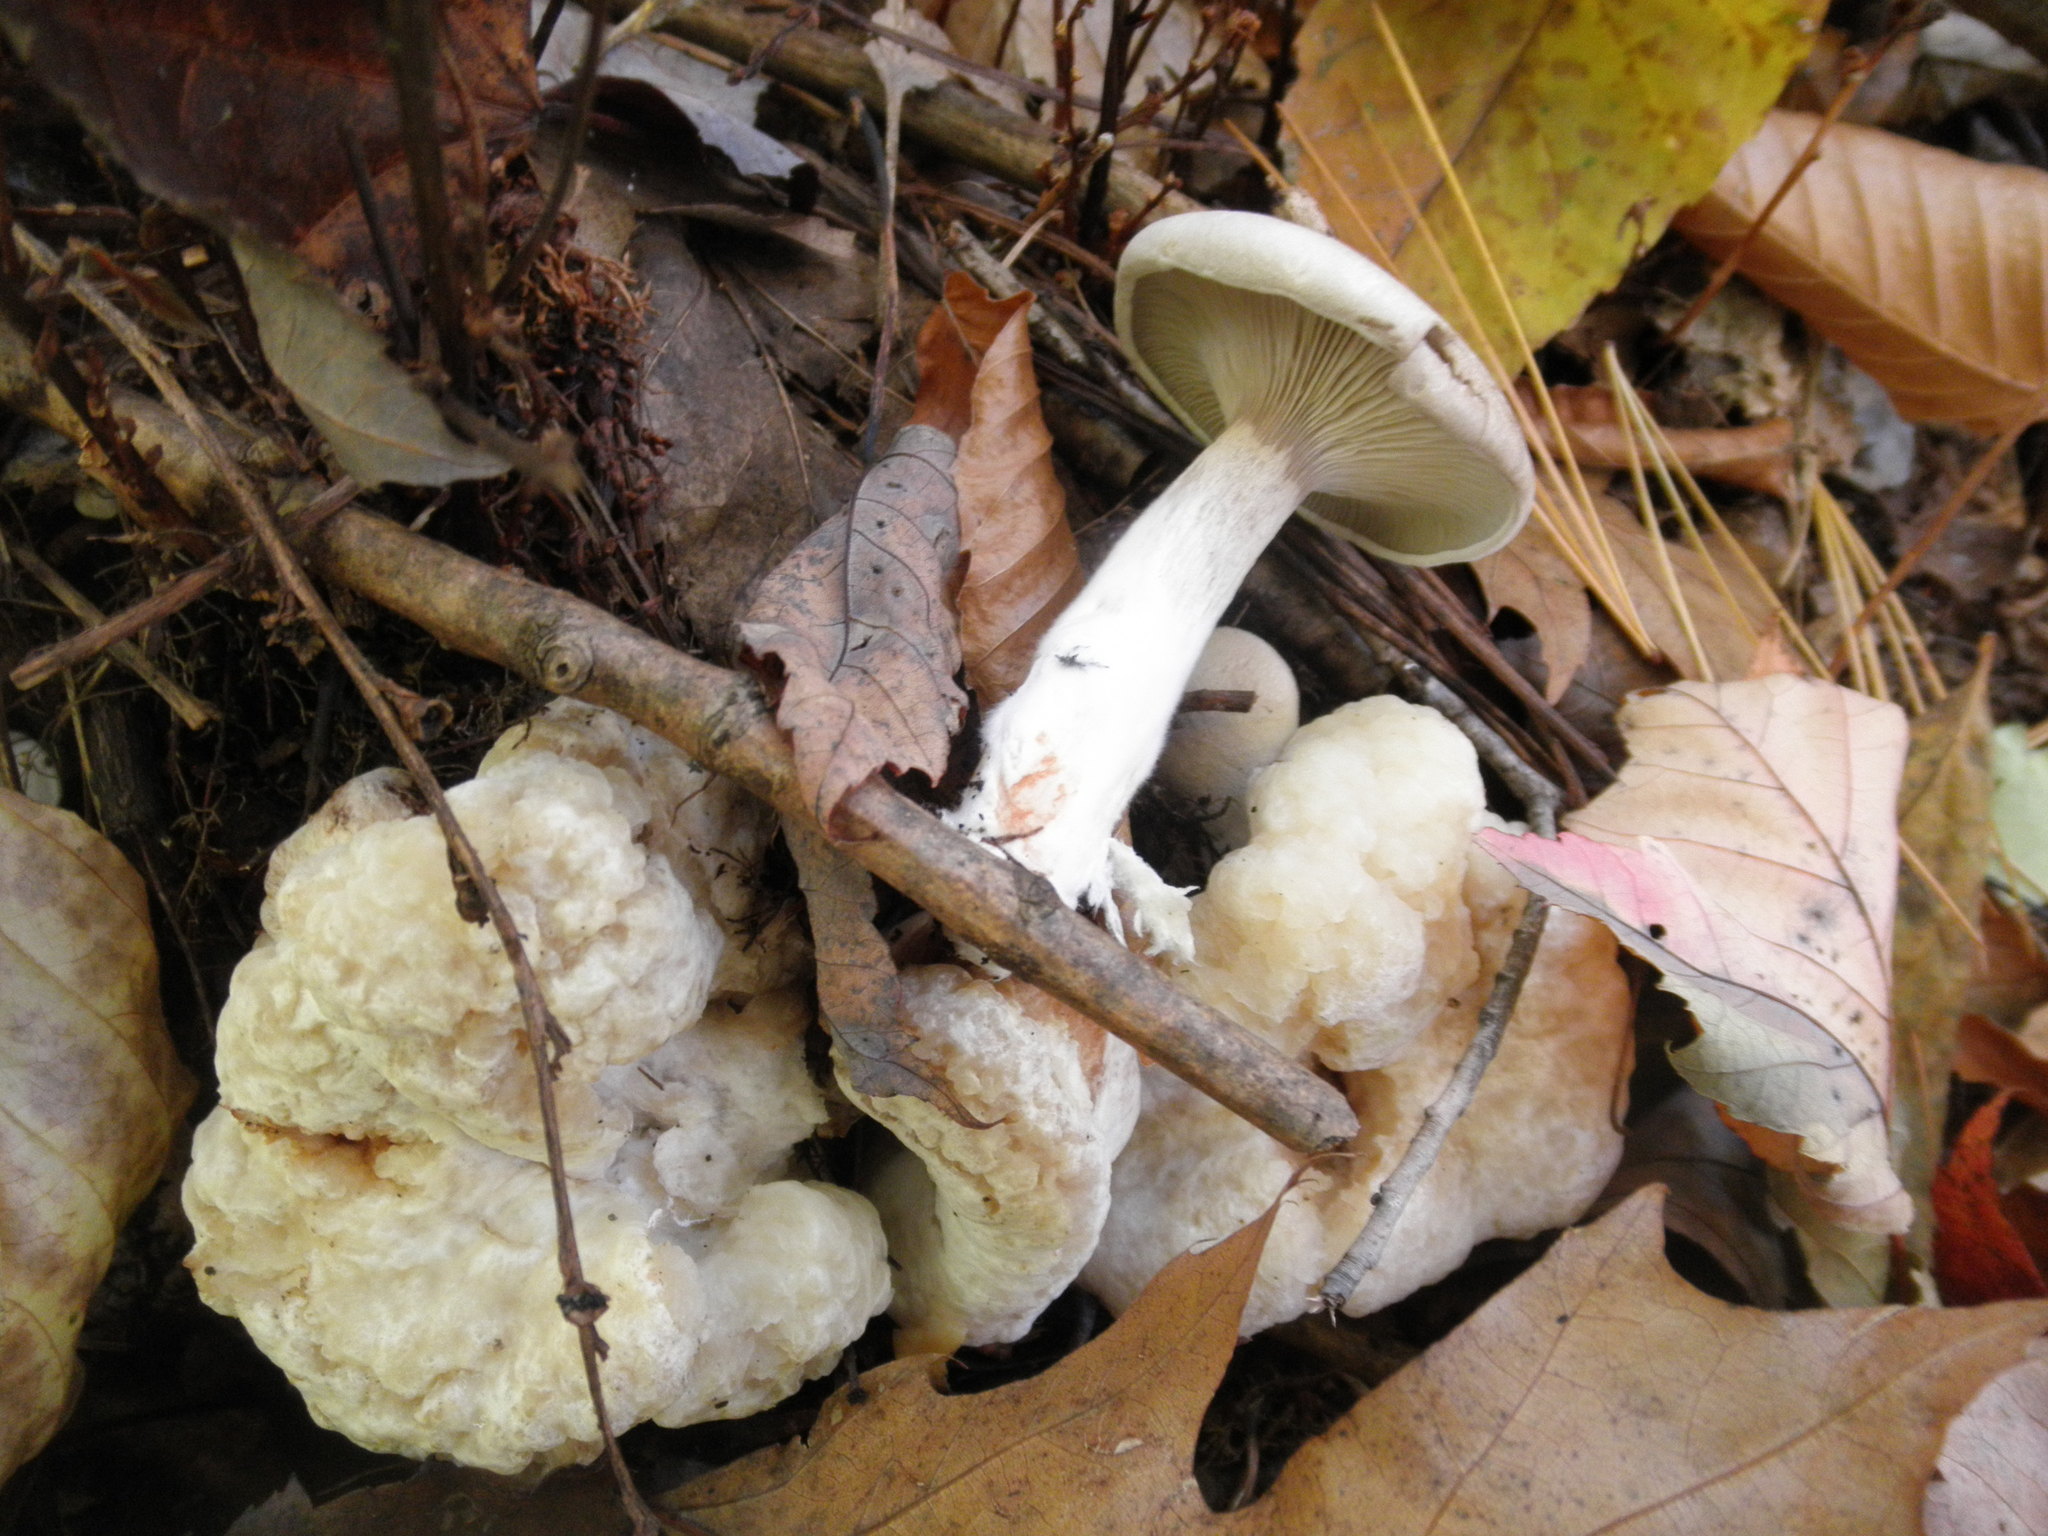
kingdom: Fungi
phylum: Basidiomycota
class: Agaricomycetes
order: Agaricales
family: Entolomataceae
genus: Entoloma
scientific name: Entoloma abortivum
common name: Aborted entoloma
